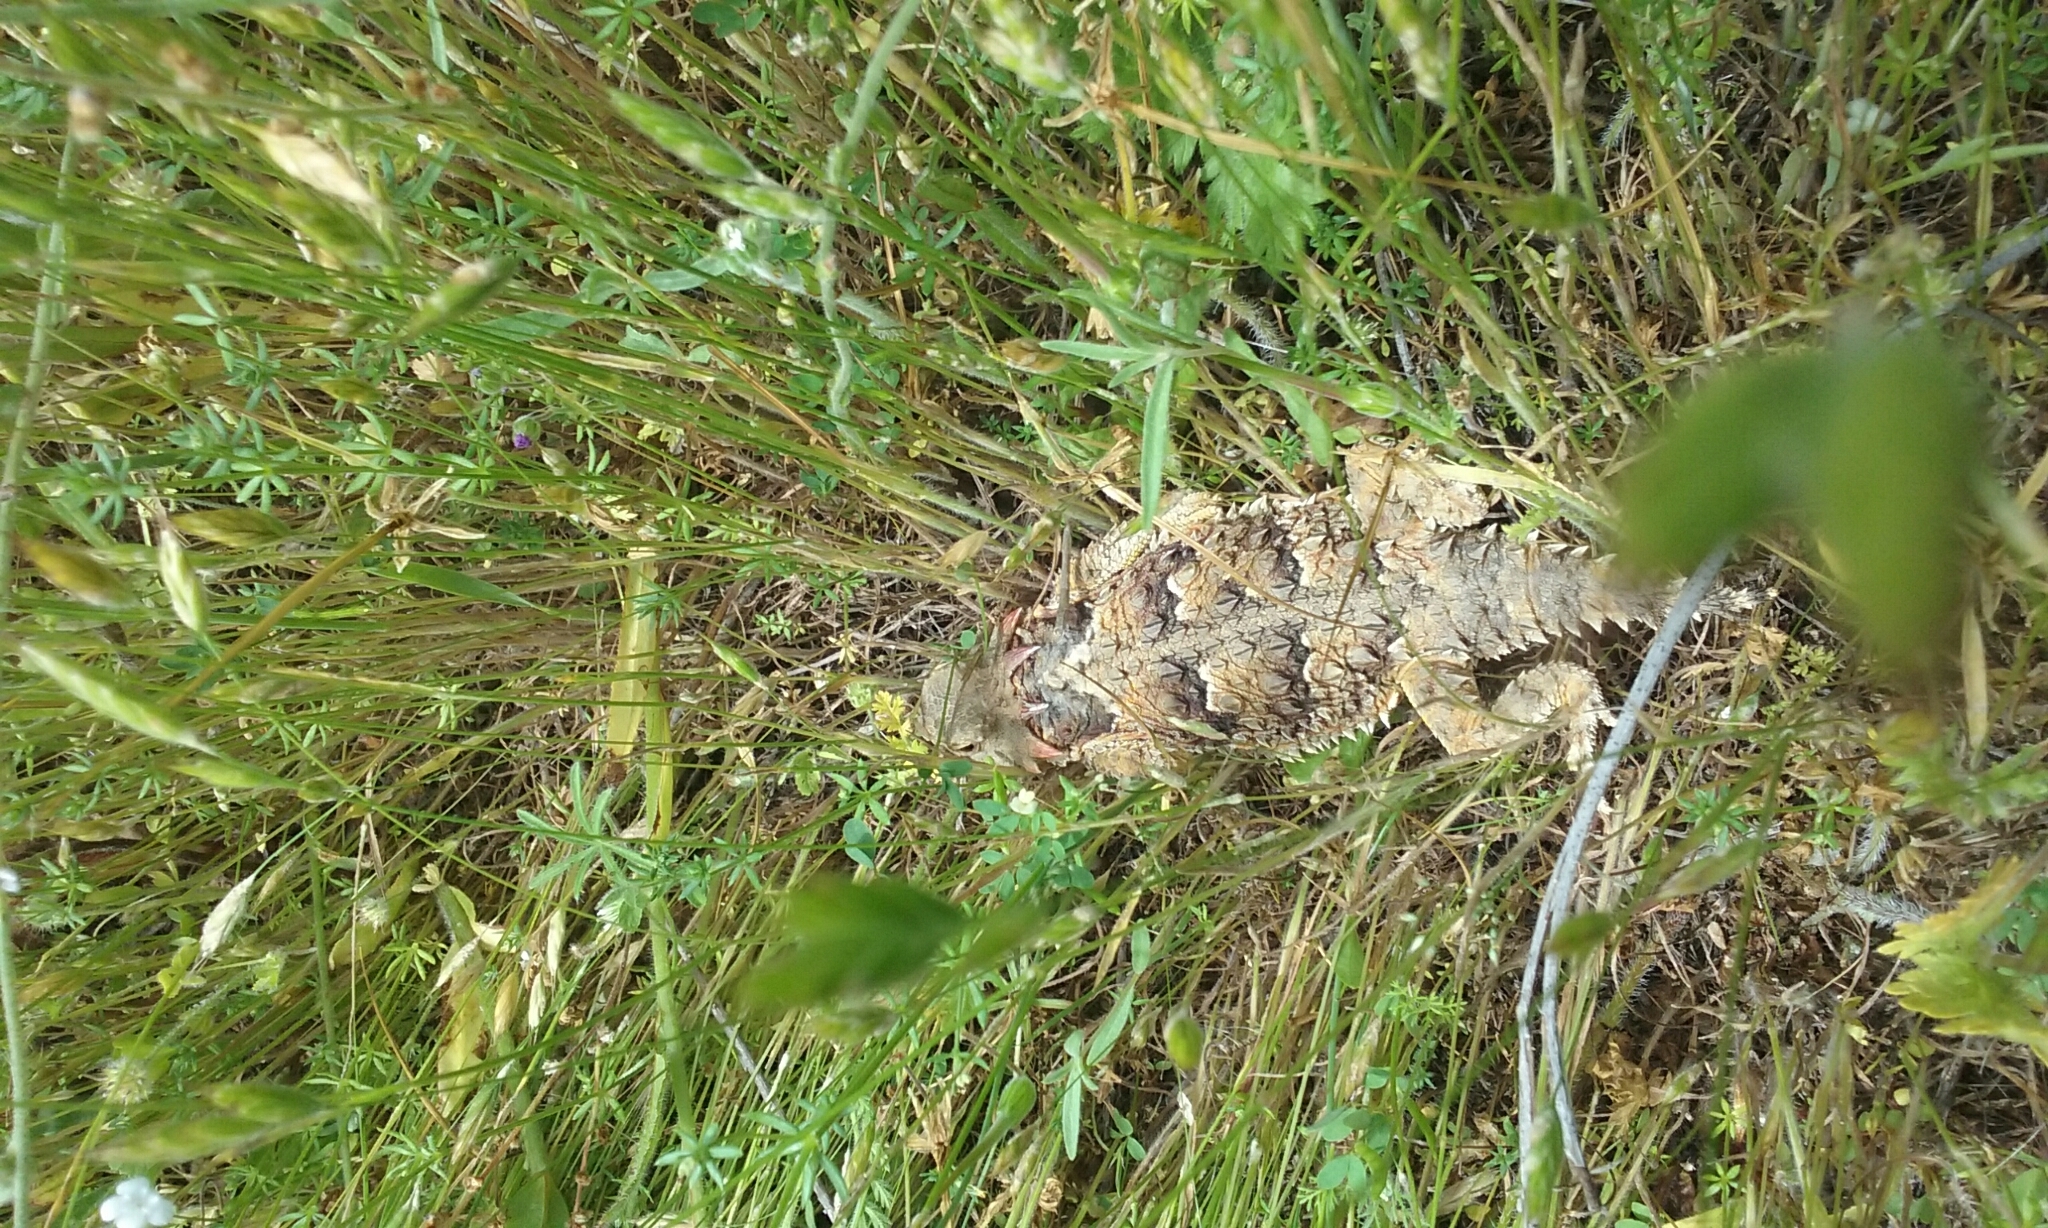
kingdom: Animalia
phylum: Chordata
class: Squamata
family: Phrynosomatidae
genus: Phrynosoma
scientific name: Phrynosoma blainvillii
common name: San diego horned lizard
